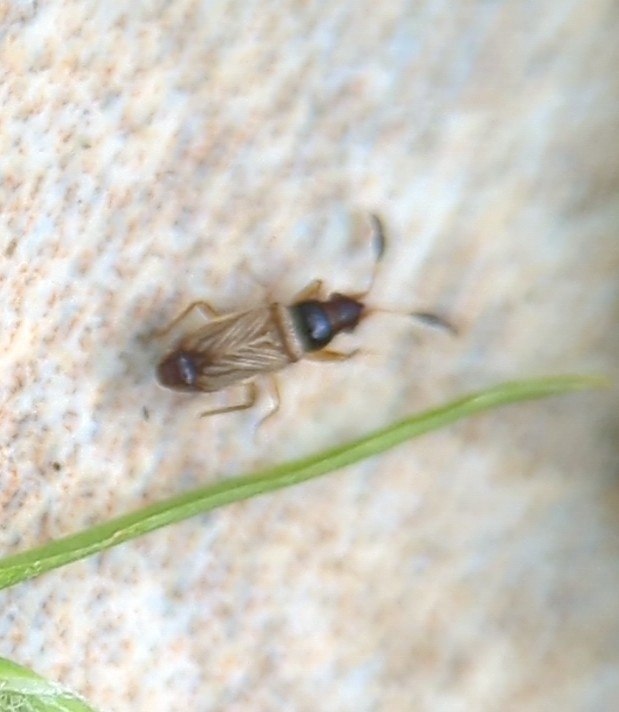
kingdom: Animalia
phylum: Arthropoda
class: Insecta
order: Hemiptera
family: Rhyparochromidae
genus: Ptochiomera
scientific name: Ptochiomera nodosa
